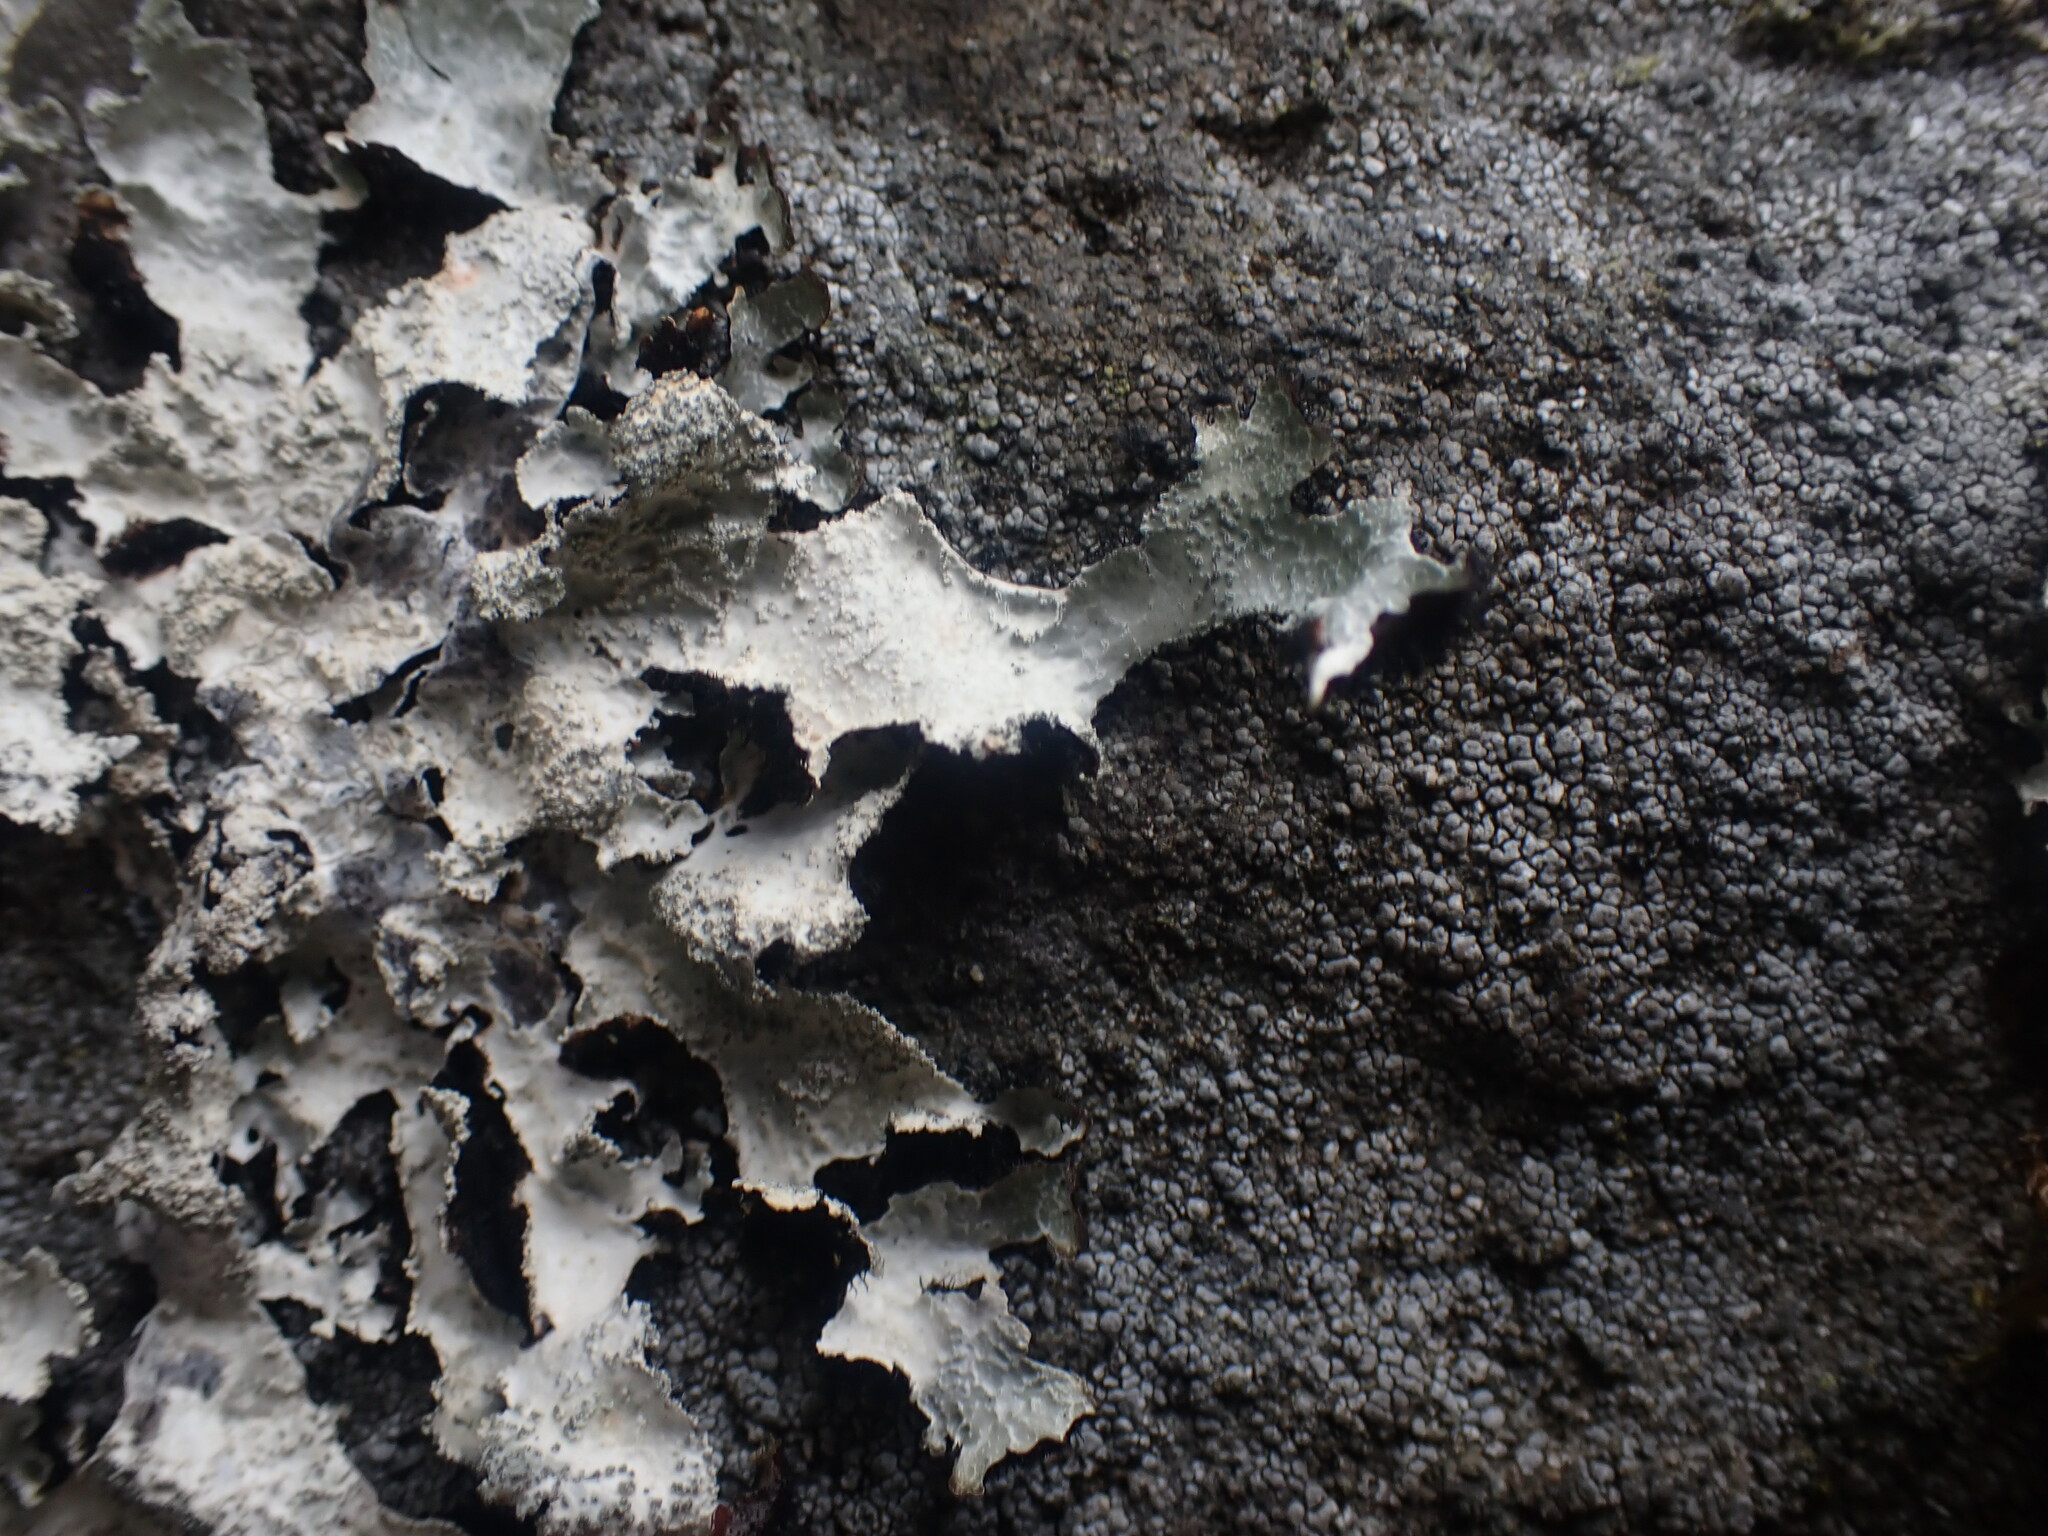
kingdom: Fungi
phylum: Ascomycota
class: Lecanoromycetes
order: Lecanorales
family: Parmeliaceae
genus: Parmelia
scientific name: Parmelia saxatilis
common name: Salted shield lichen
